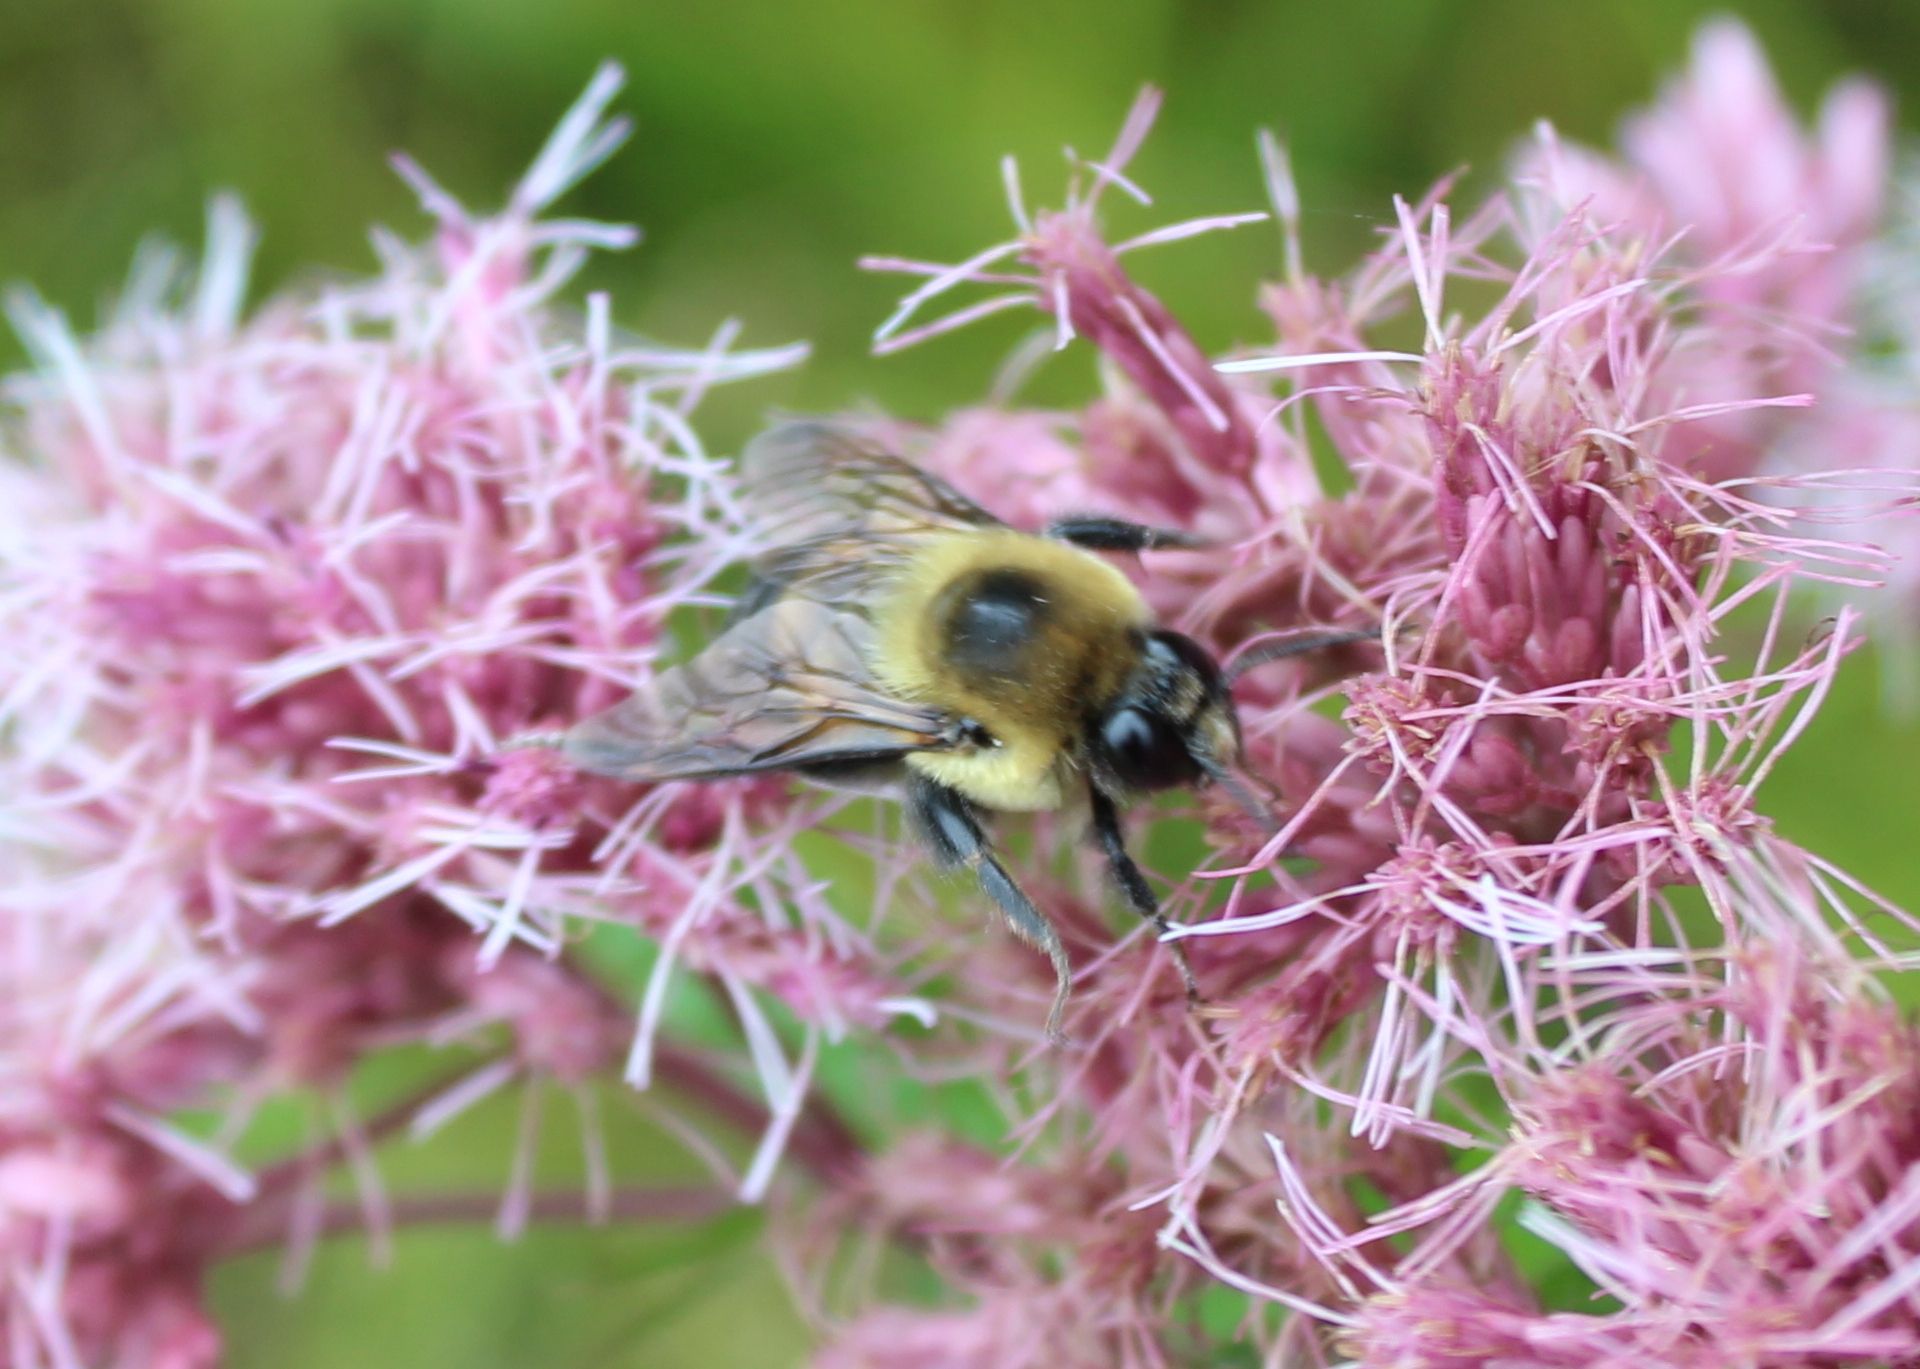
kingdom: Animalia
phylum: Arthropoda
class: Insecta
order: Hymenoptera
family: Apidae
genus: Bombus
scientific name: Bombus griseocollis
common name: Brown-belted bumble bee
